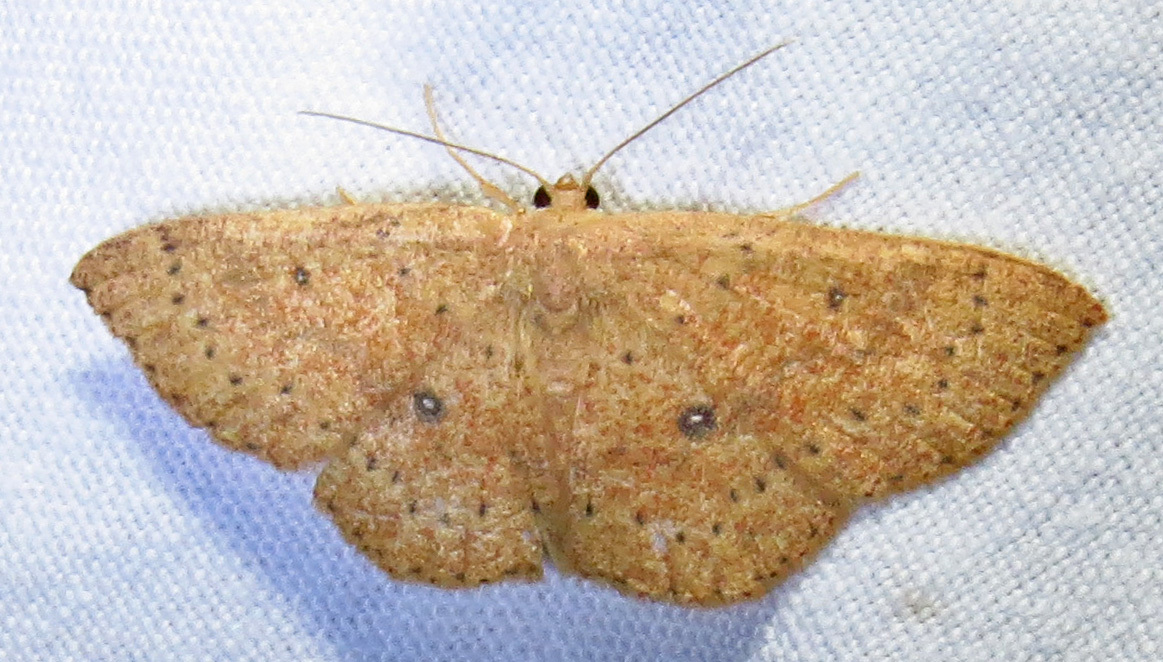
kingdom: Animalia
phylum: Arthropoda
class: Insecta
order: Lepidoptera
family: Geometridae
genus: Cyclophora
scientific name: Cyclophora packardi
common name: Packard's wave
